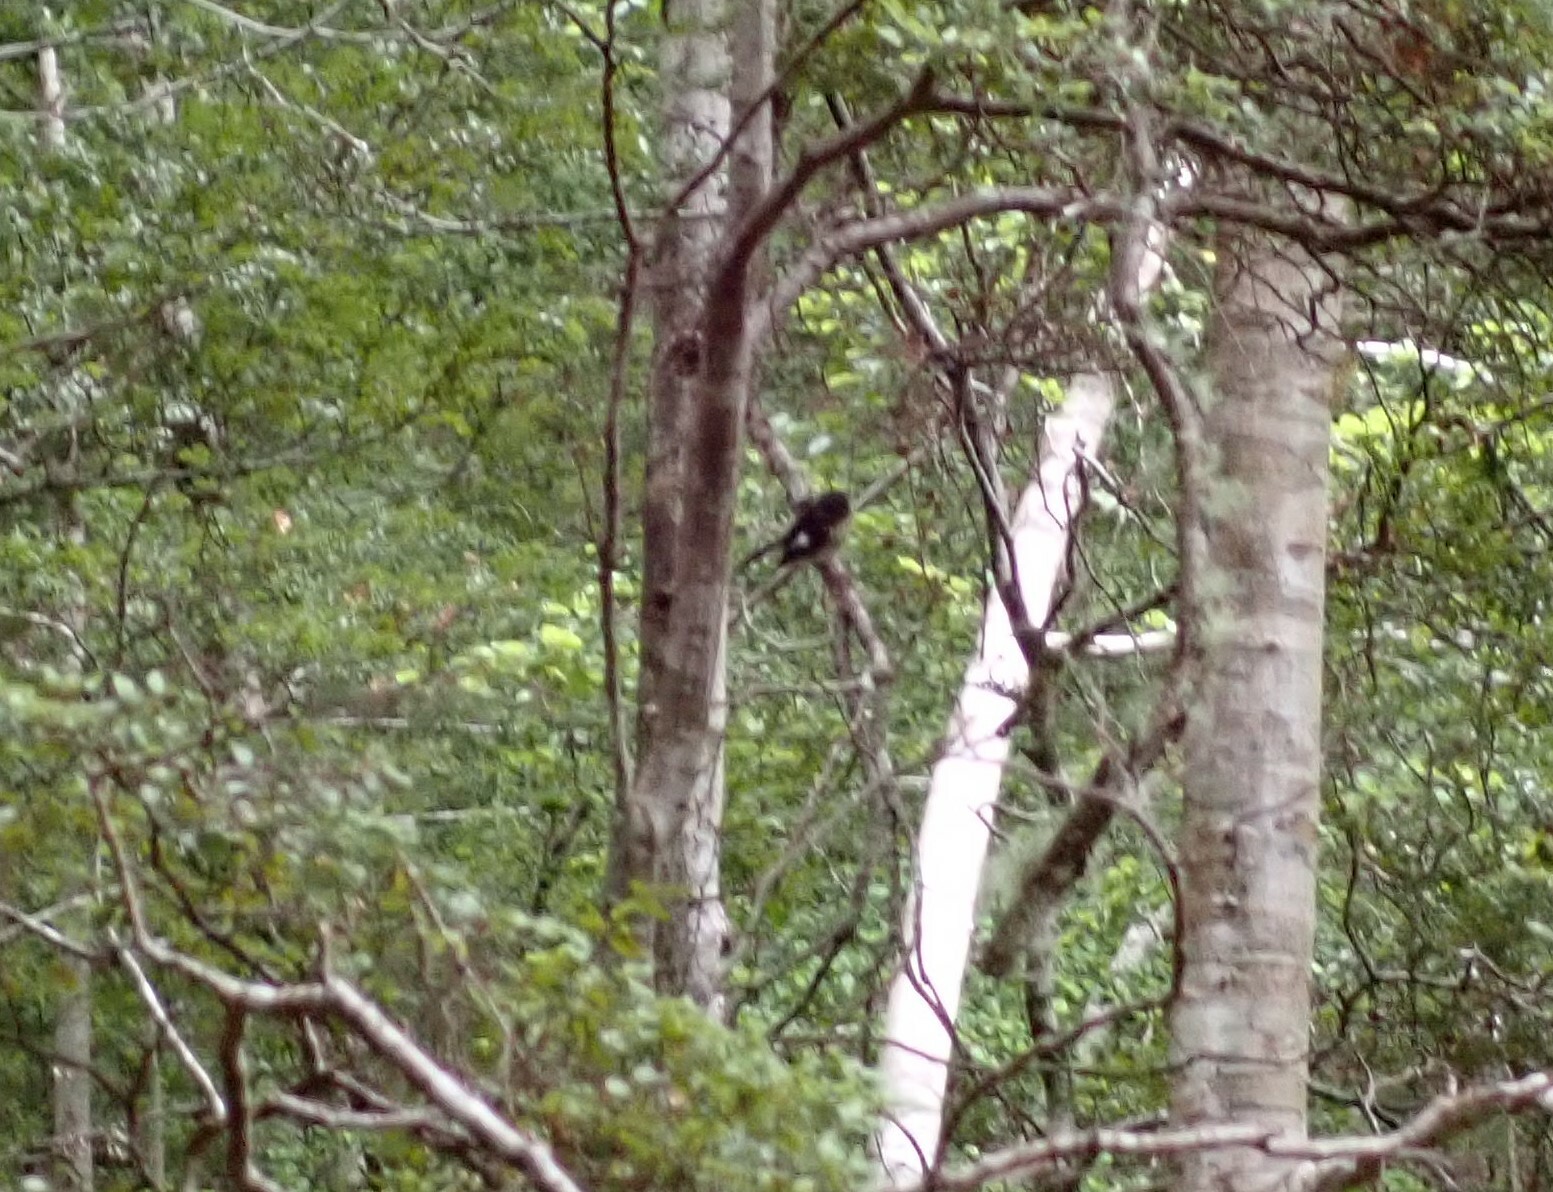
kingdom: Animalia
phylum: Chordata
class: Aves
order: Passeriformes
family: Petroicidae
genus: Petroica
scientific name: Petroica macrocephala
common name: Tomtit
